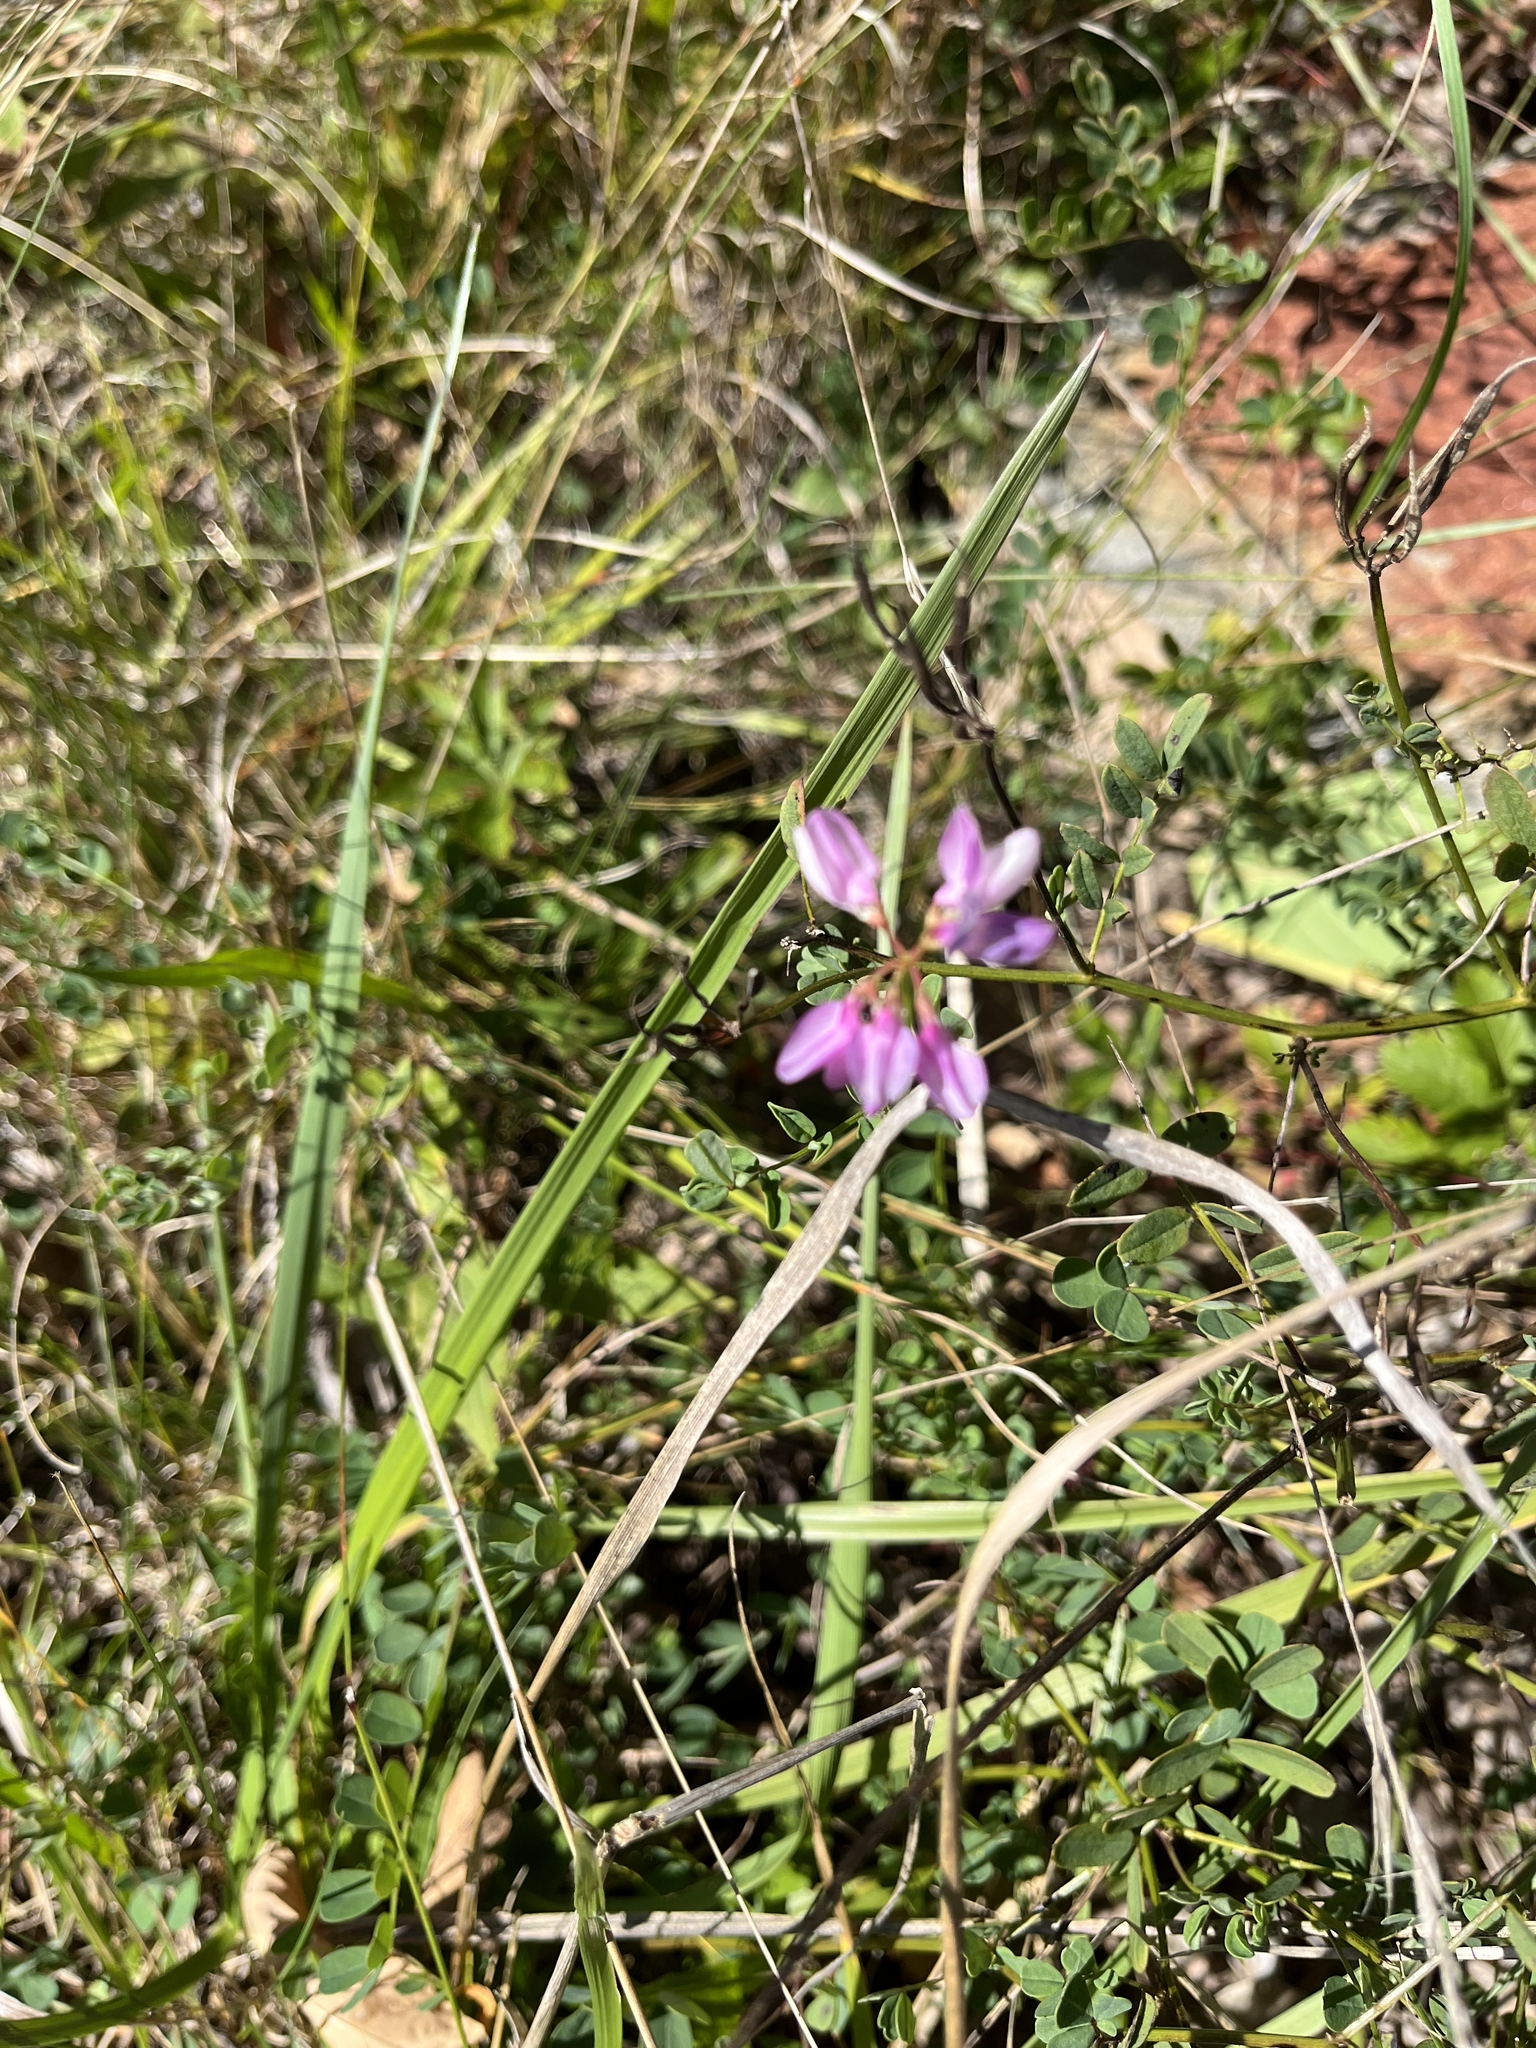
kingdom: Plantae
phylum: Tracheophyta
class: Magnoliopsida
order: Fabales
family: Fabaceae
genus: Coronilla
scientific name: Coronilla varia
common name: Crownvetch
